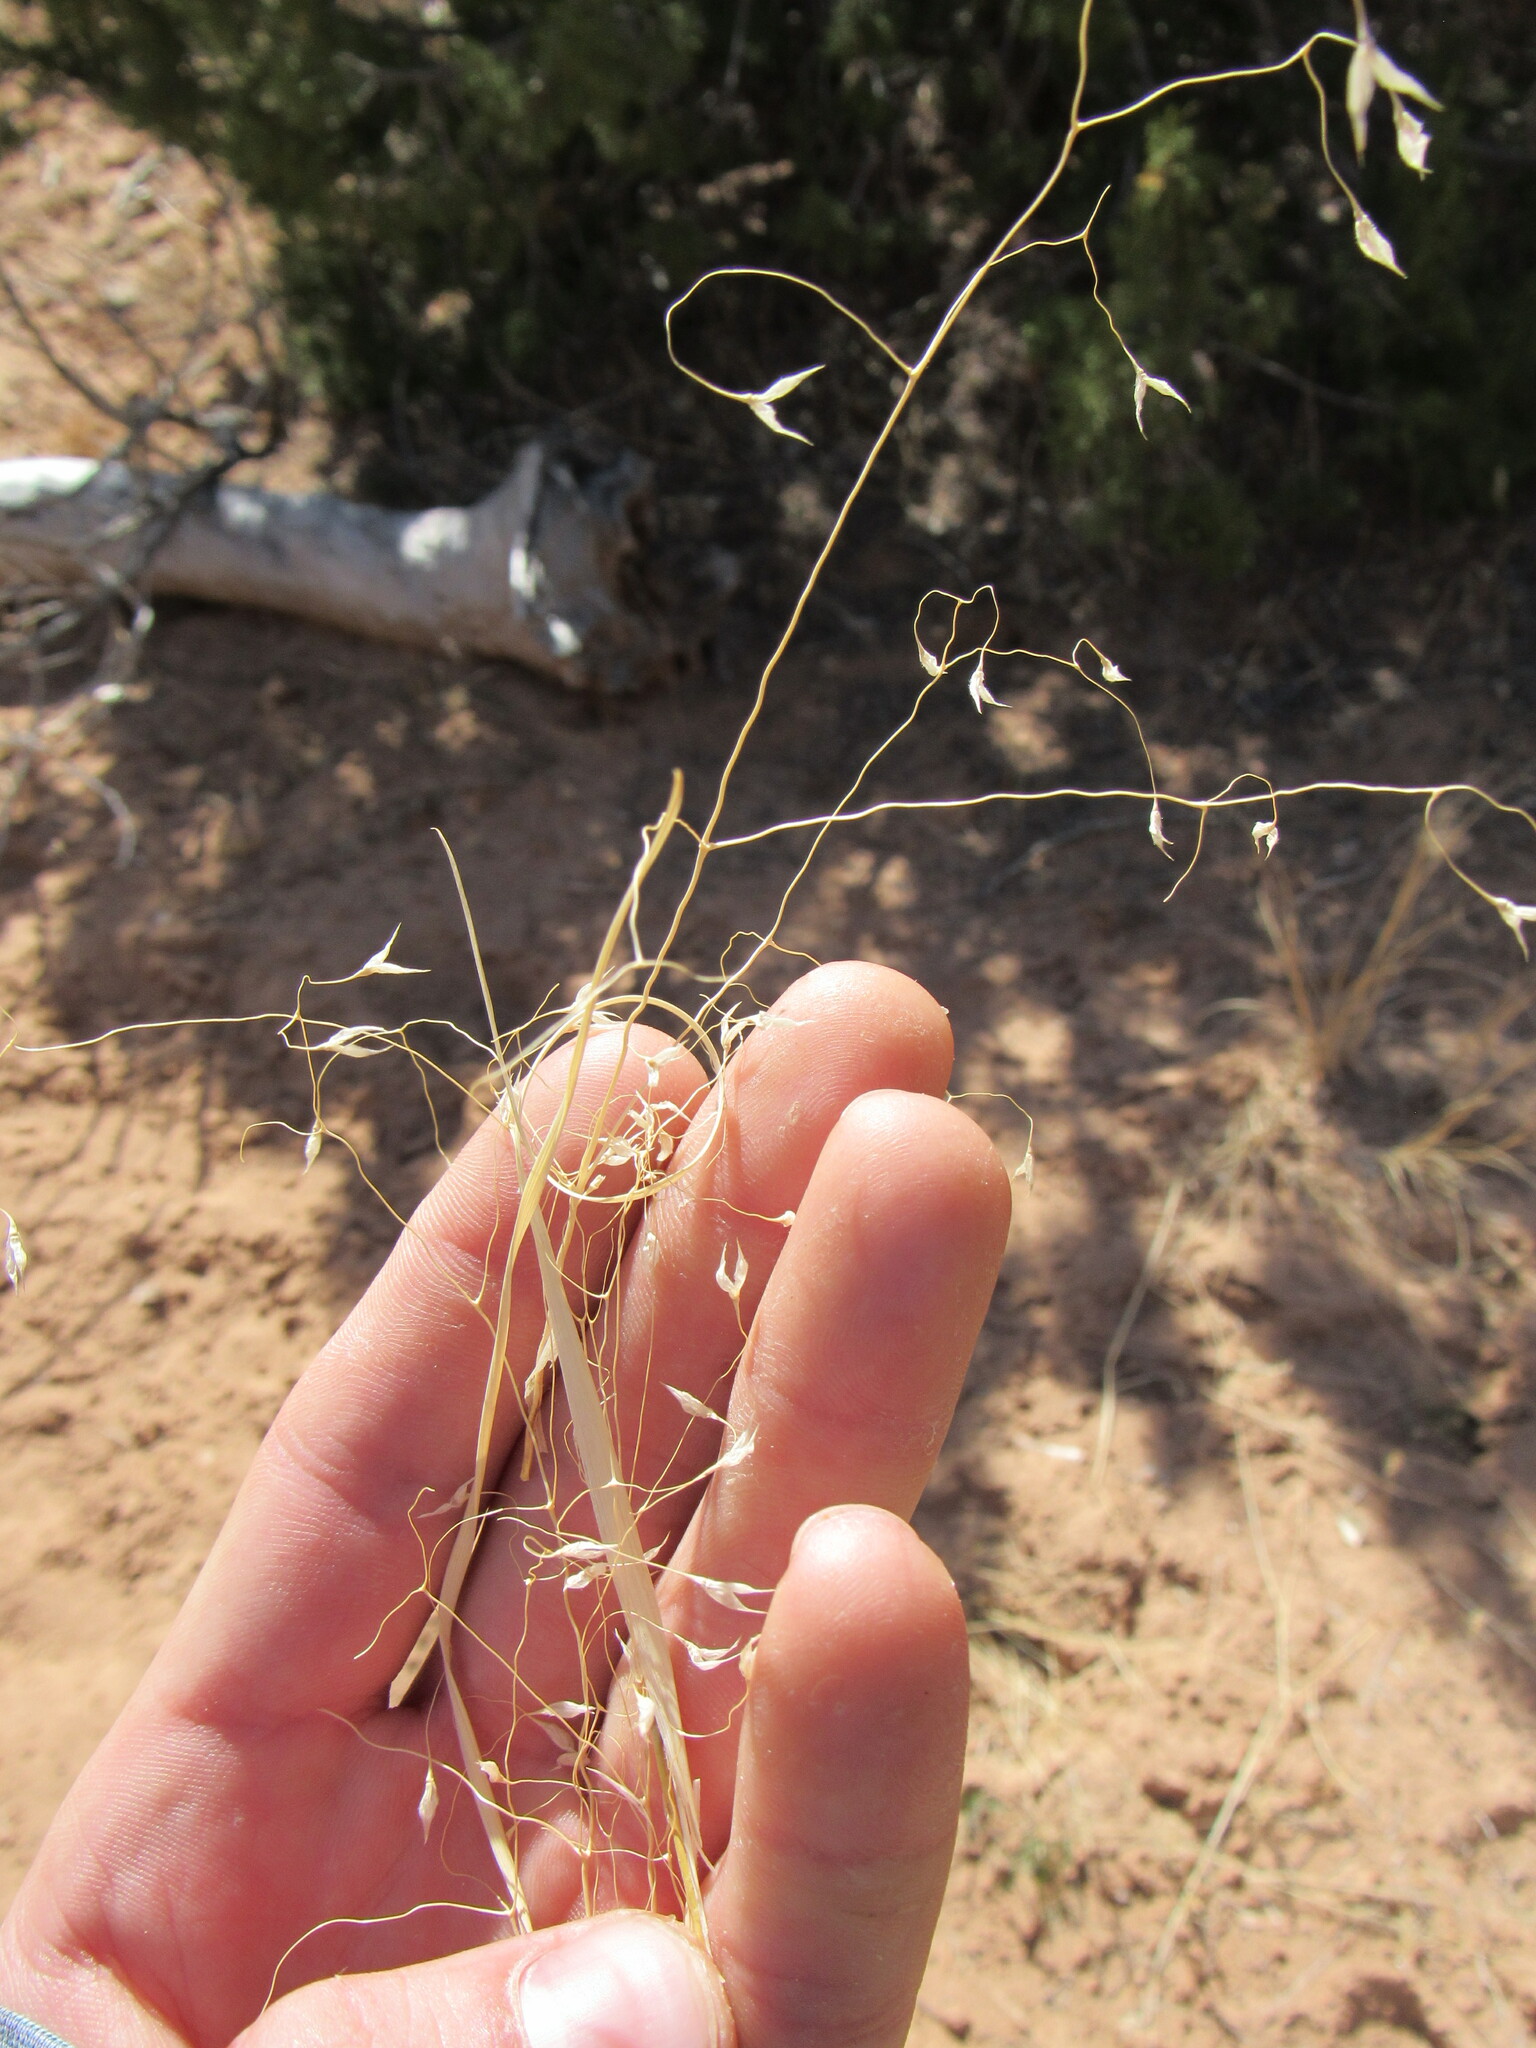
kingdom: Plantae
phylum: Tracheophyta
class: Liliopsida
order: Poales
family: Poaceae
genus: Eriocoma
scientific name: Eriocoma hymenoides
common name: Indian mountain ricegrass
